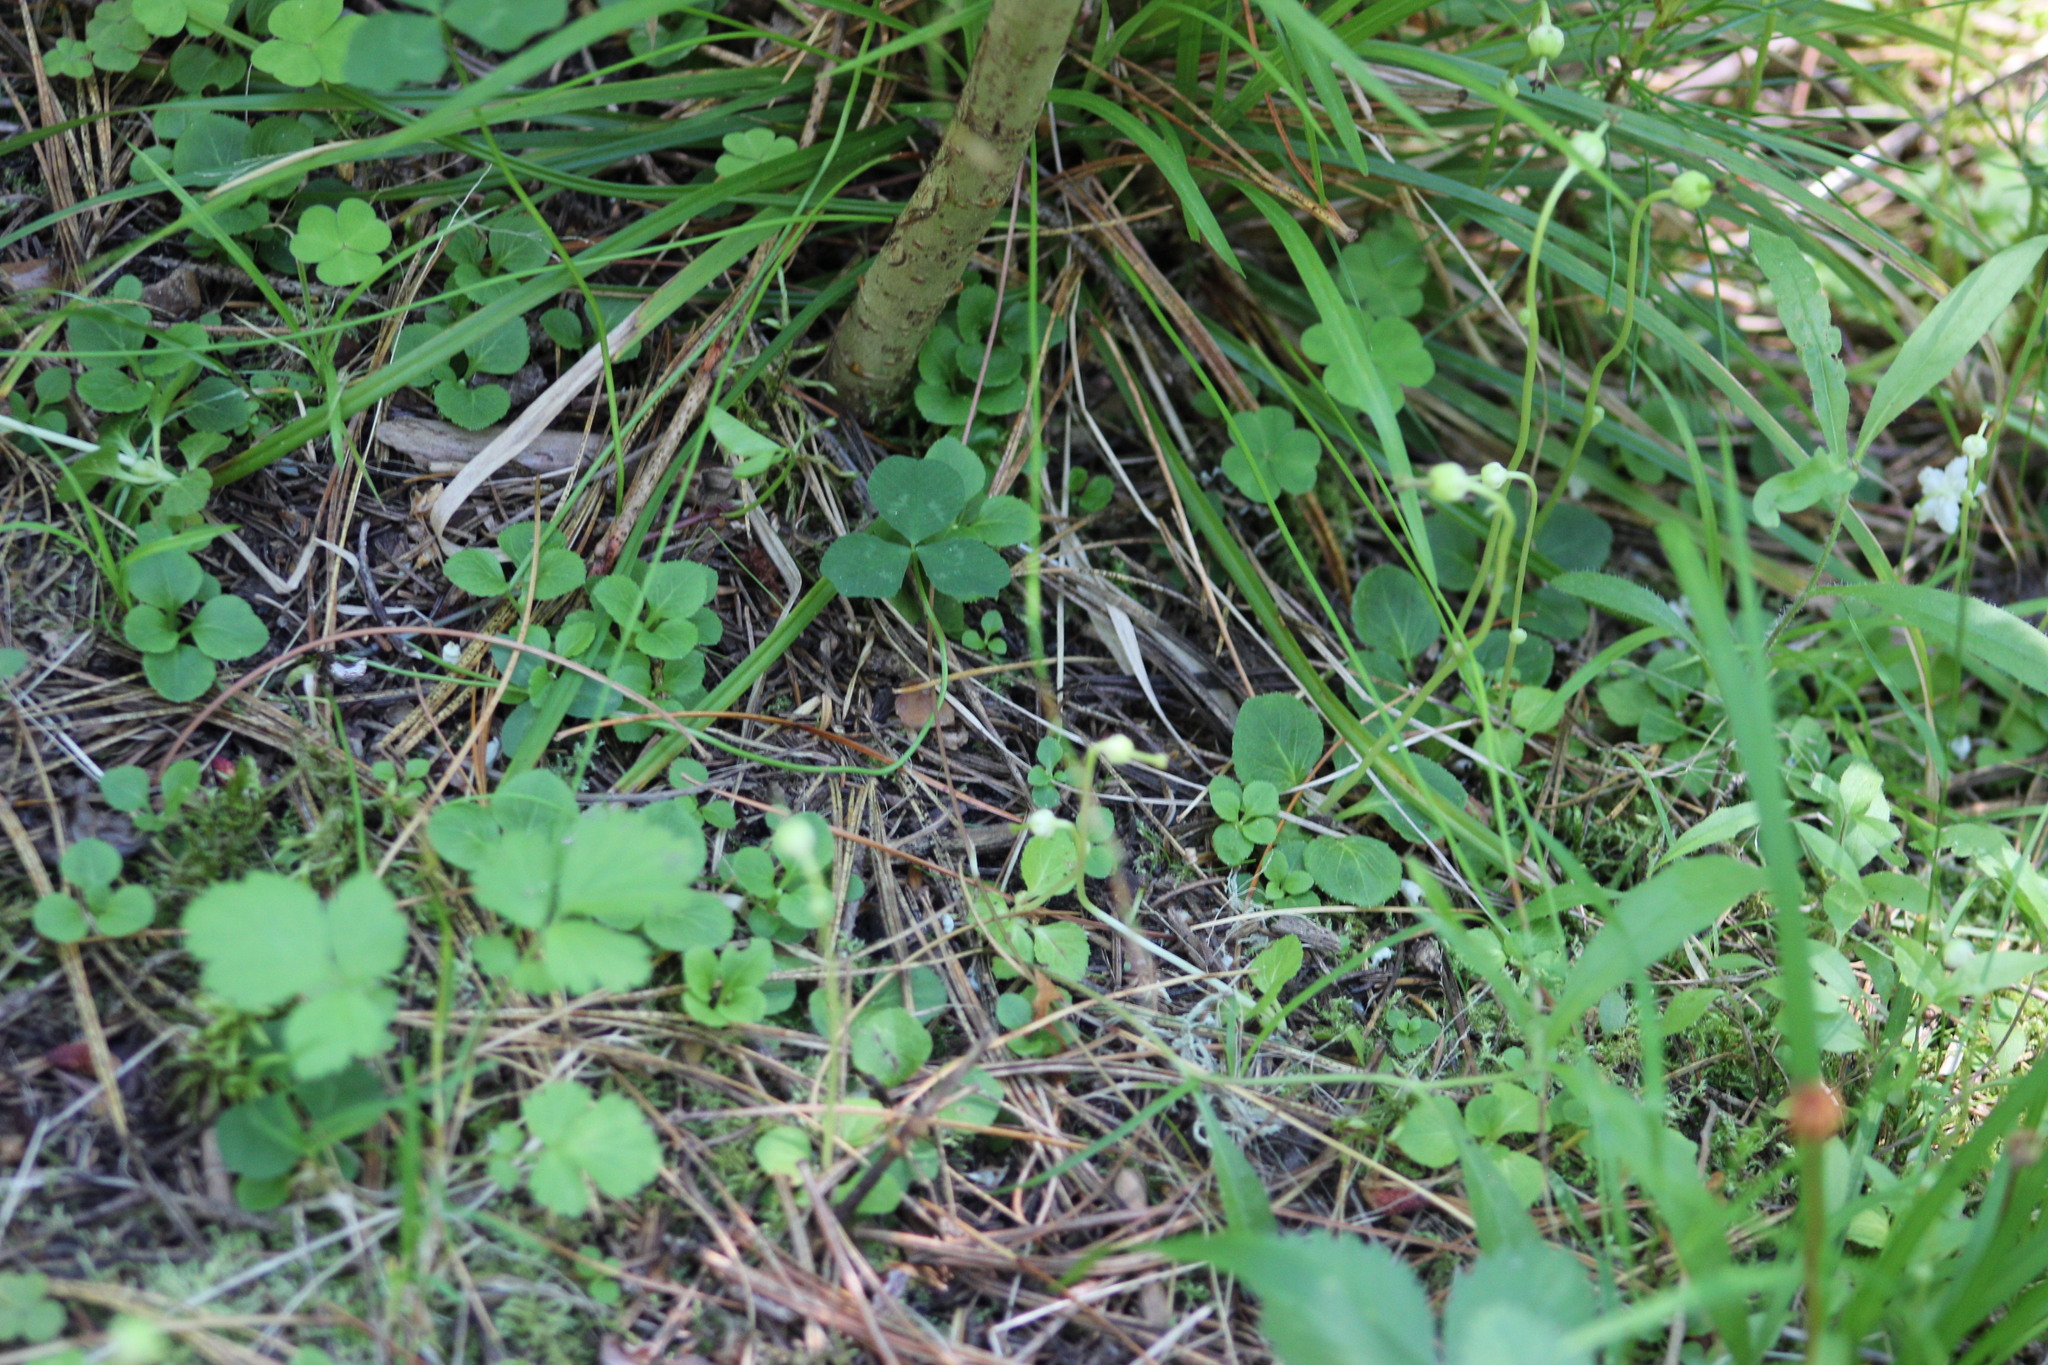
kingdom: Plantae
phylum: Tracheophyta
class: Magnoliopsida
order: Ericales
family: Ericaceae
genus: Moneses
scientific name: Moneses uniflora
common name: One-flowered wintergreen
